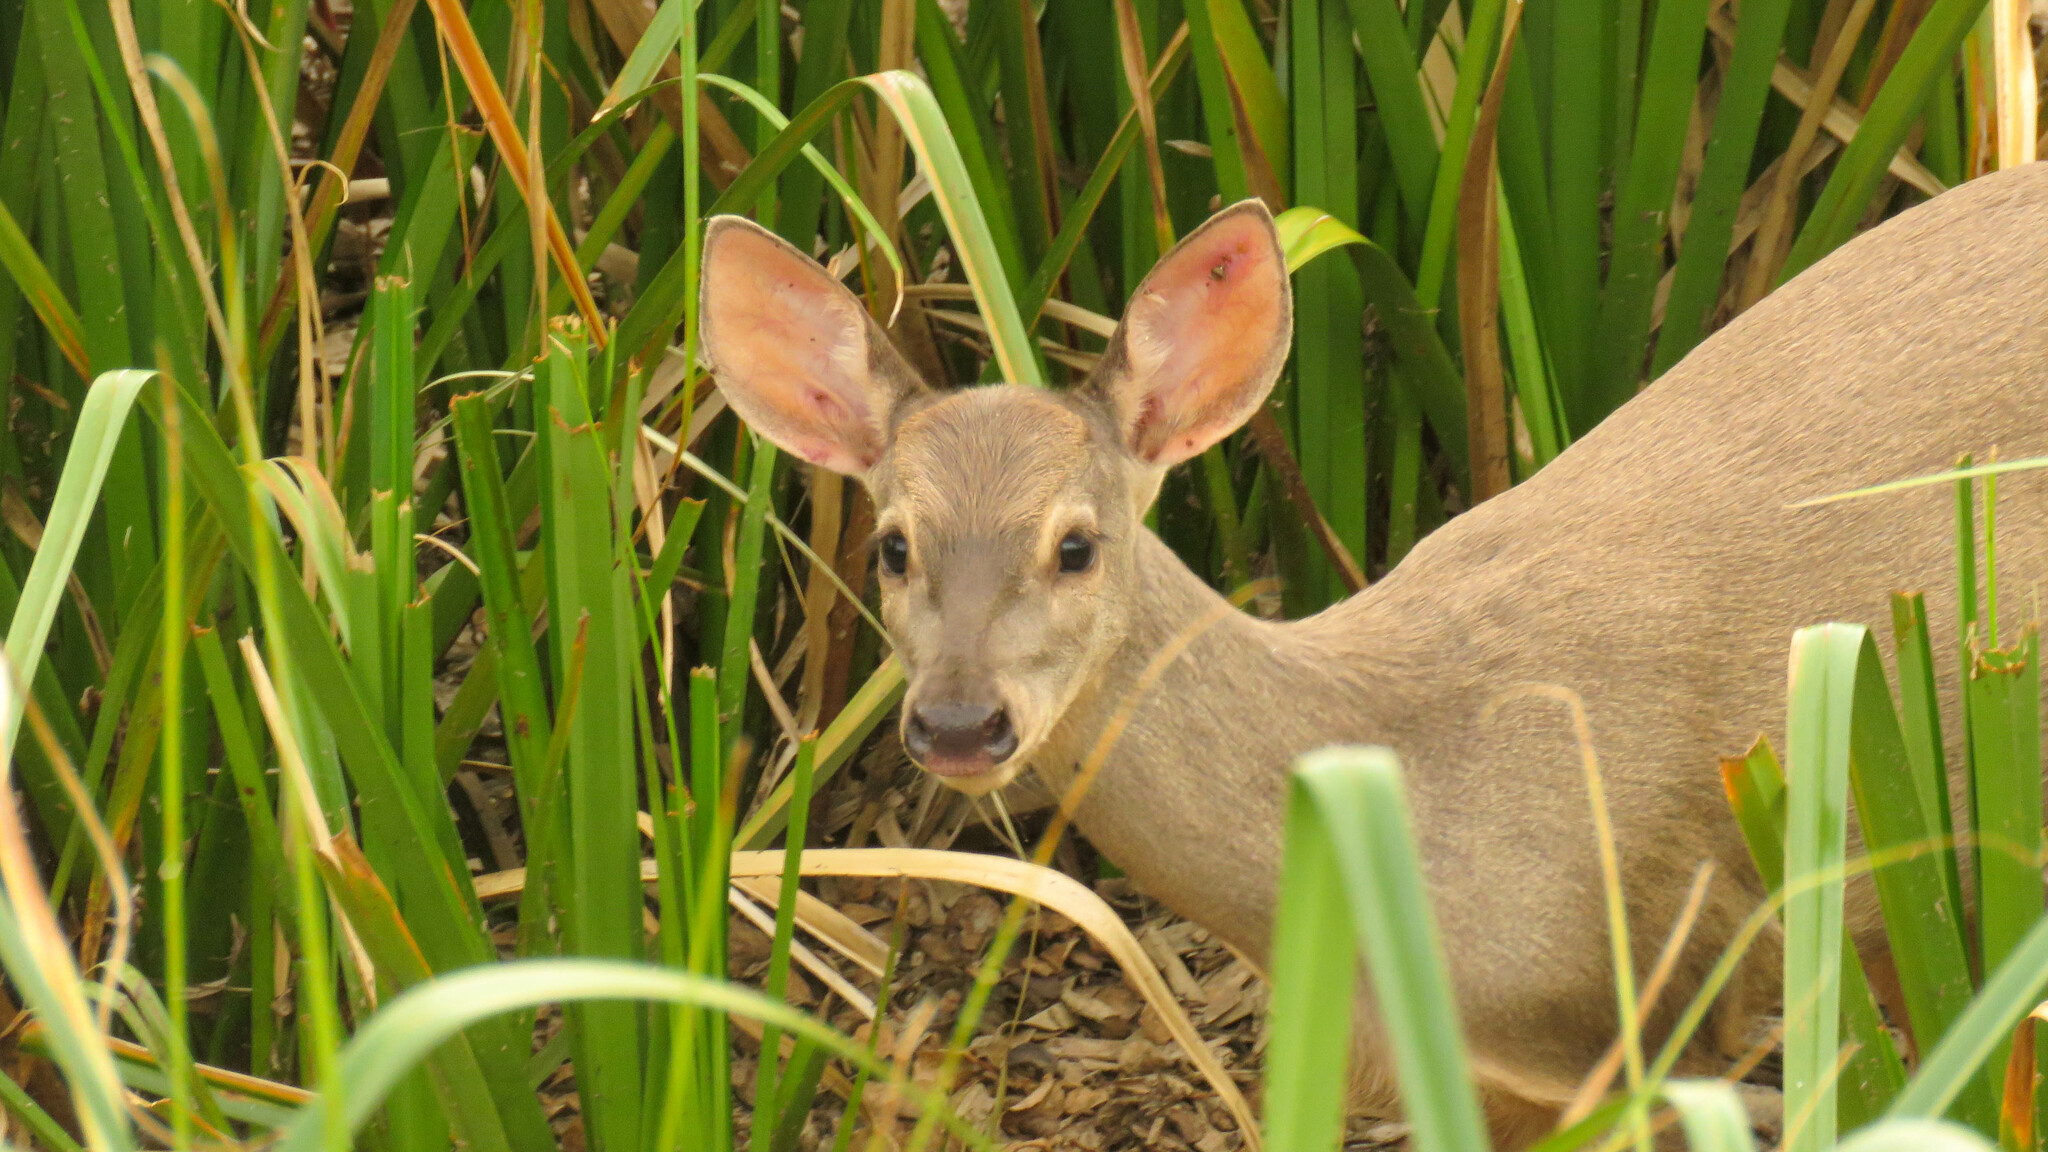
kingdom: Animalia
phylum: Chordata
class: Mammalia
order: Artiodactyla
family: Cervidae
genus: Mazama
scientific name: Mazama gouazoubira
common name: Gray brocket
